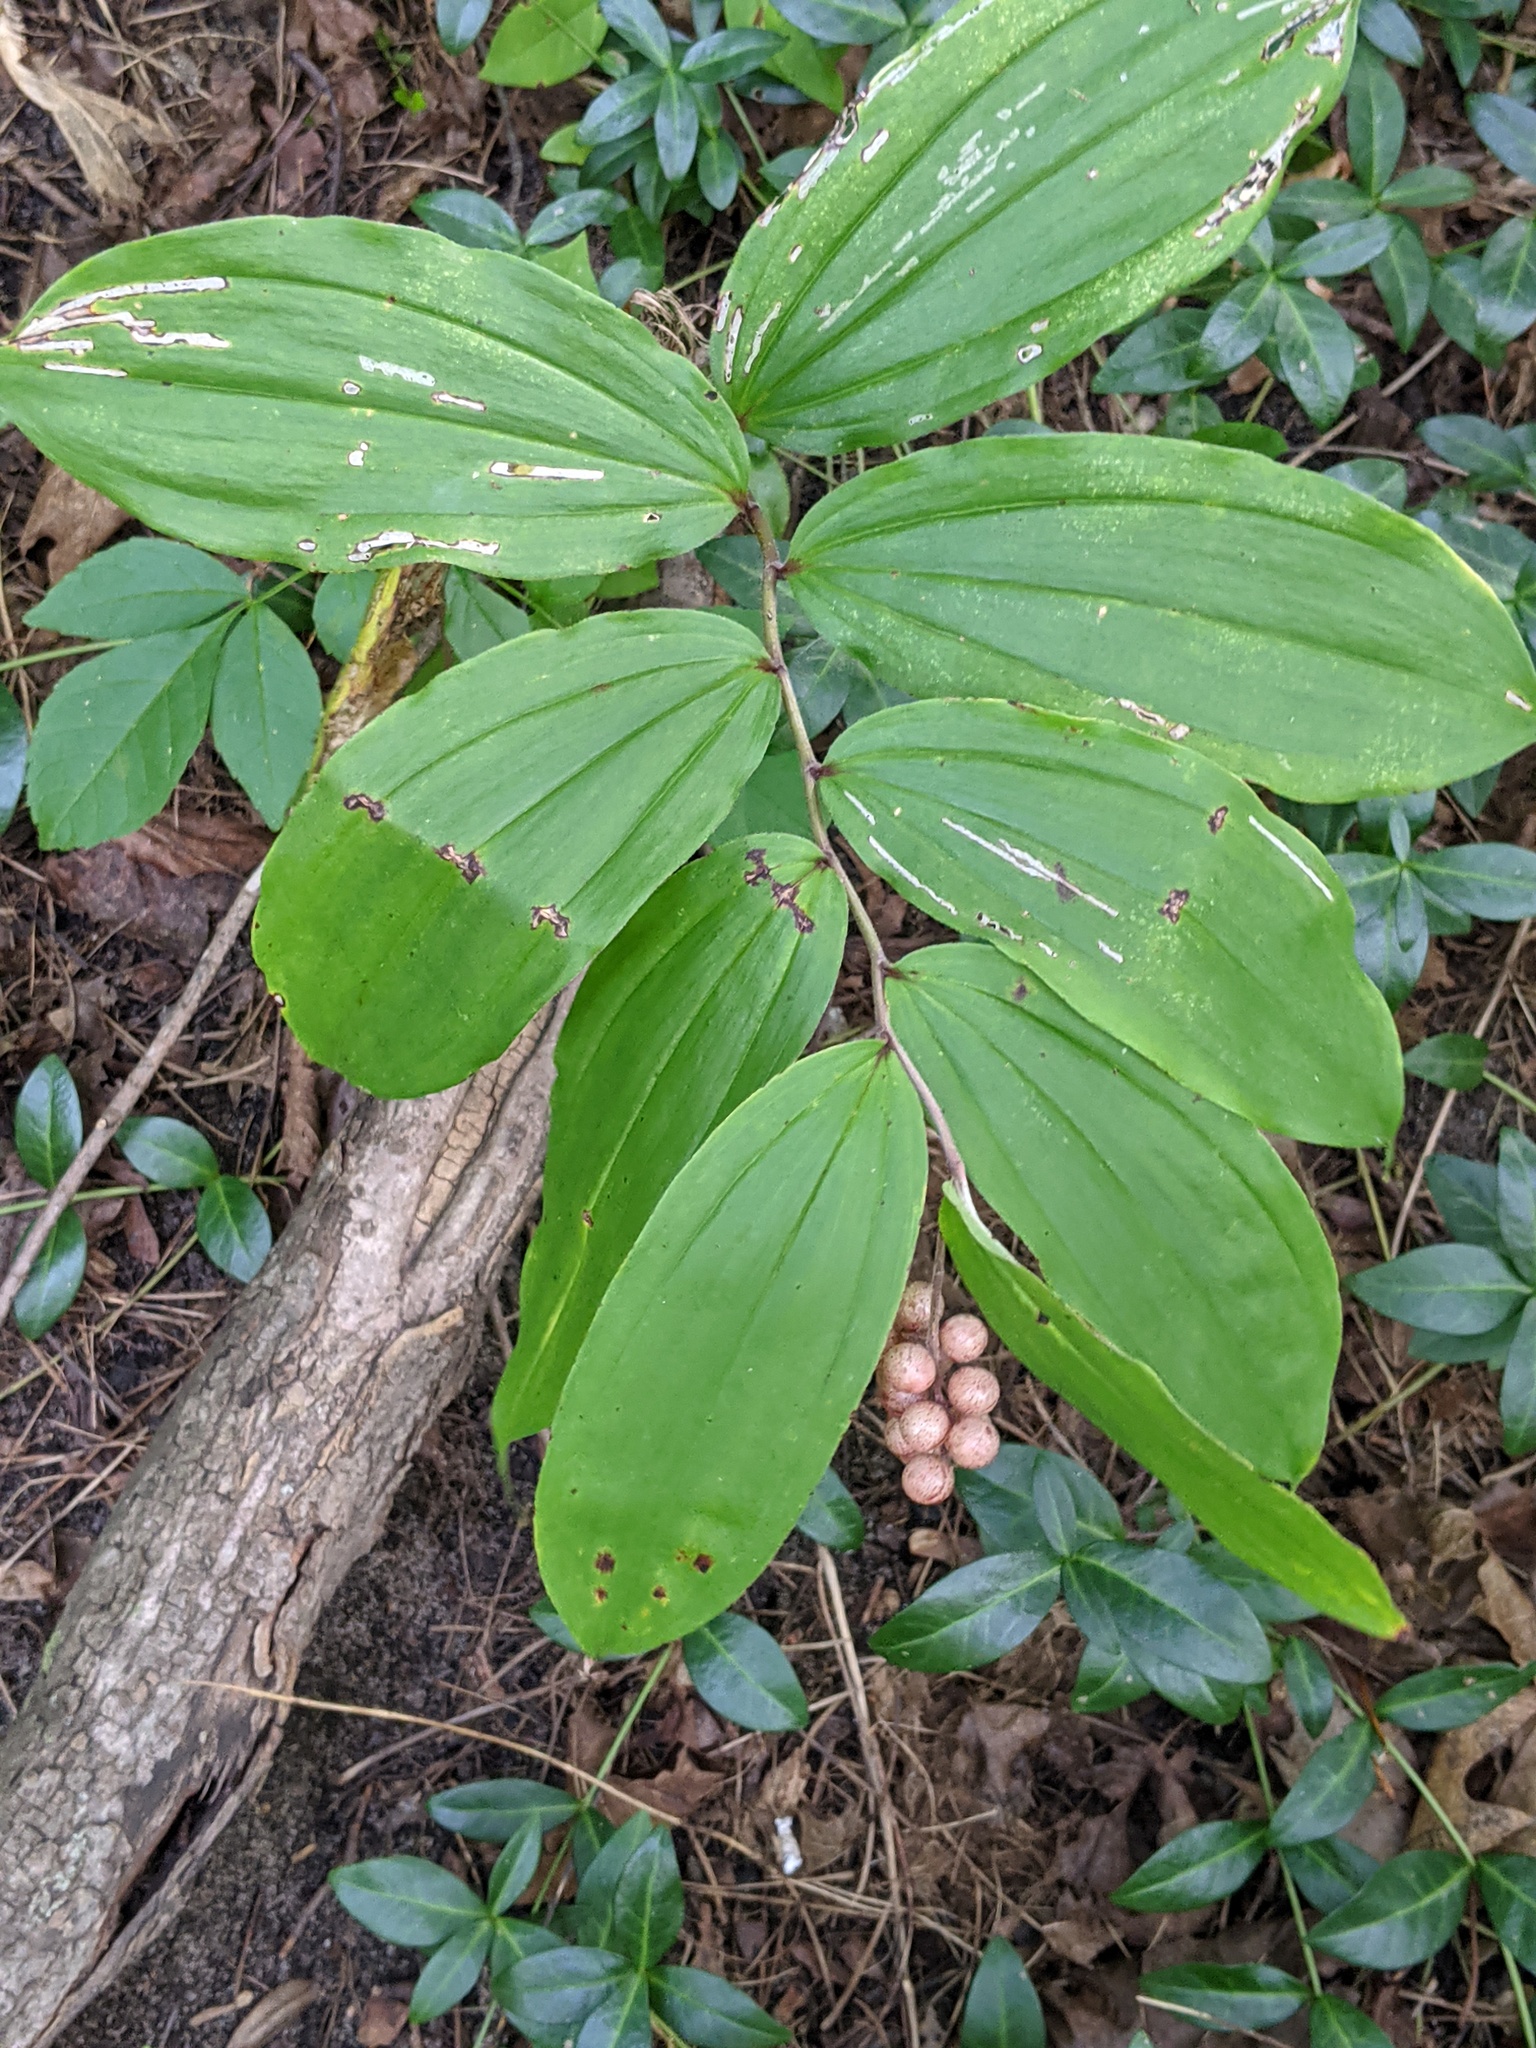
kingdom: Plantae
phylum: Tracheophyta
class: Liliopsida
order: Asparagales
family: Asparagaceae
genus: Maianthemum
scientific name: Maianthemum racemosum
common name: False spikenard
